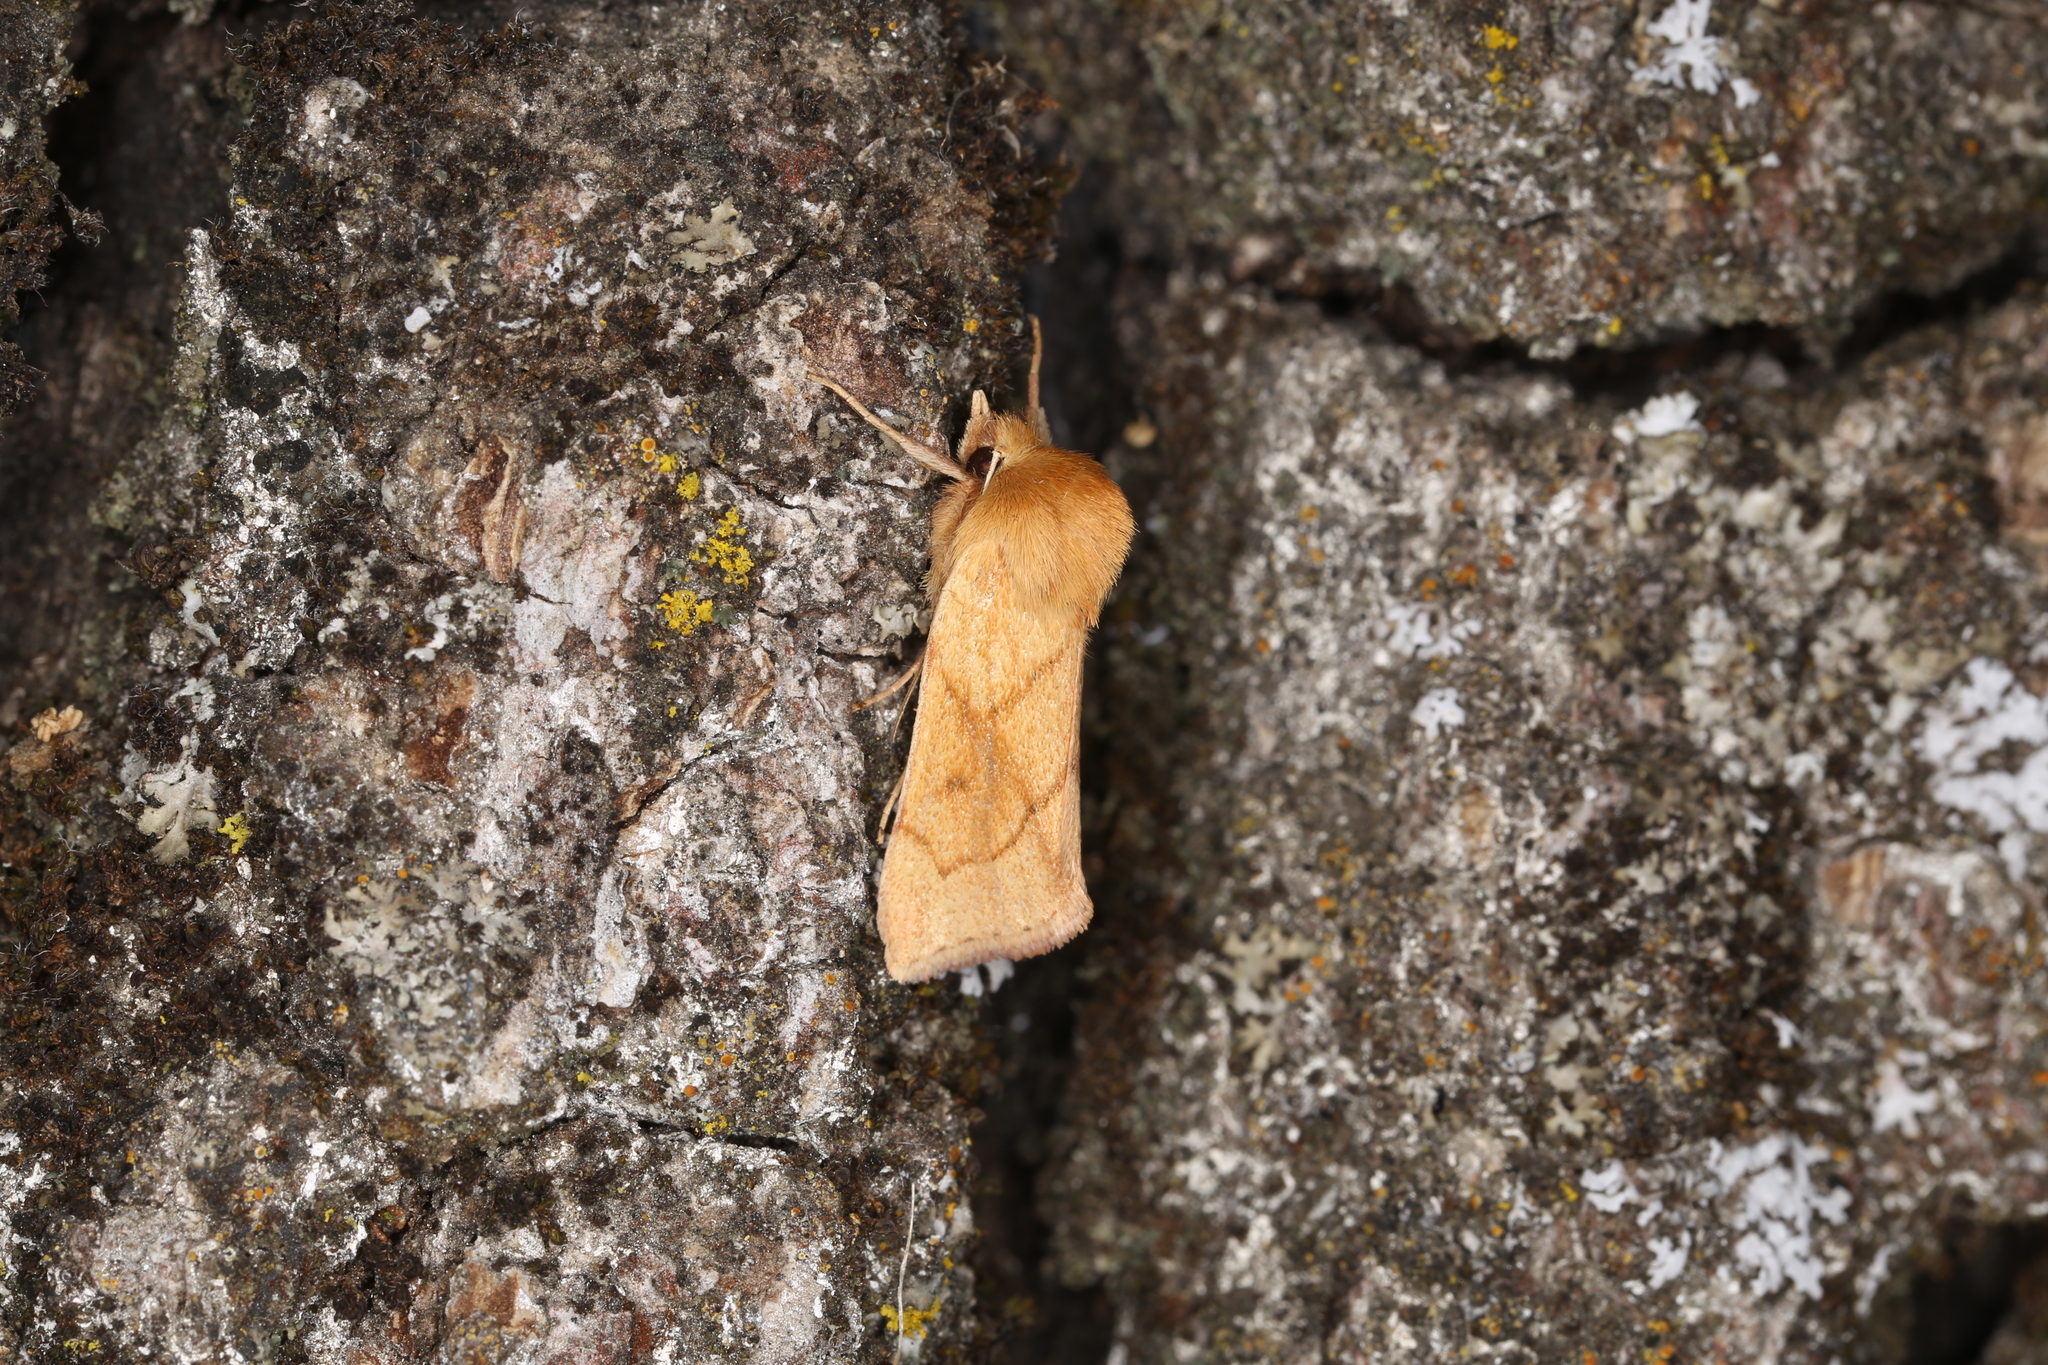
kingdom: Animalia
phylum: Arthropoda
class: Insecta
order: Lepidoptera
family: Noctuidae
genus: Zosteropoda
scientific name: Zosteropoda hirtipes
